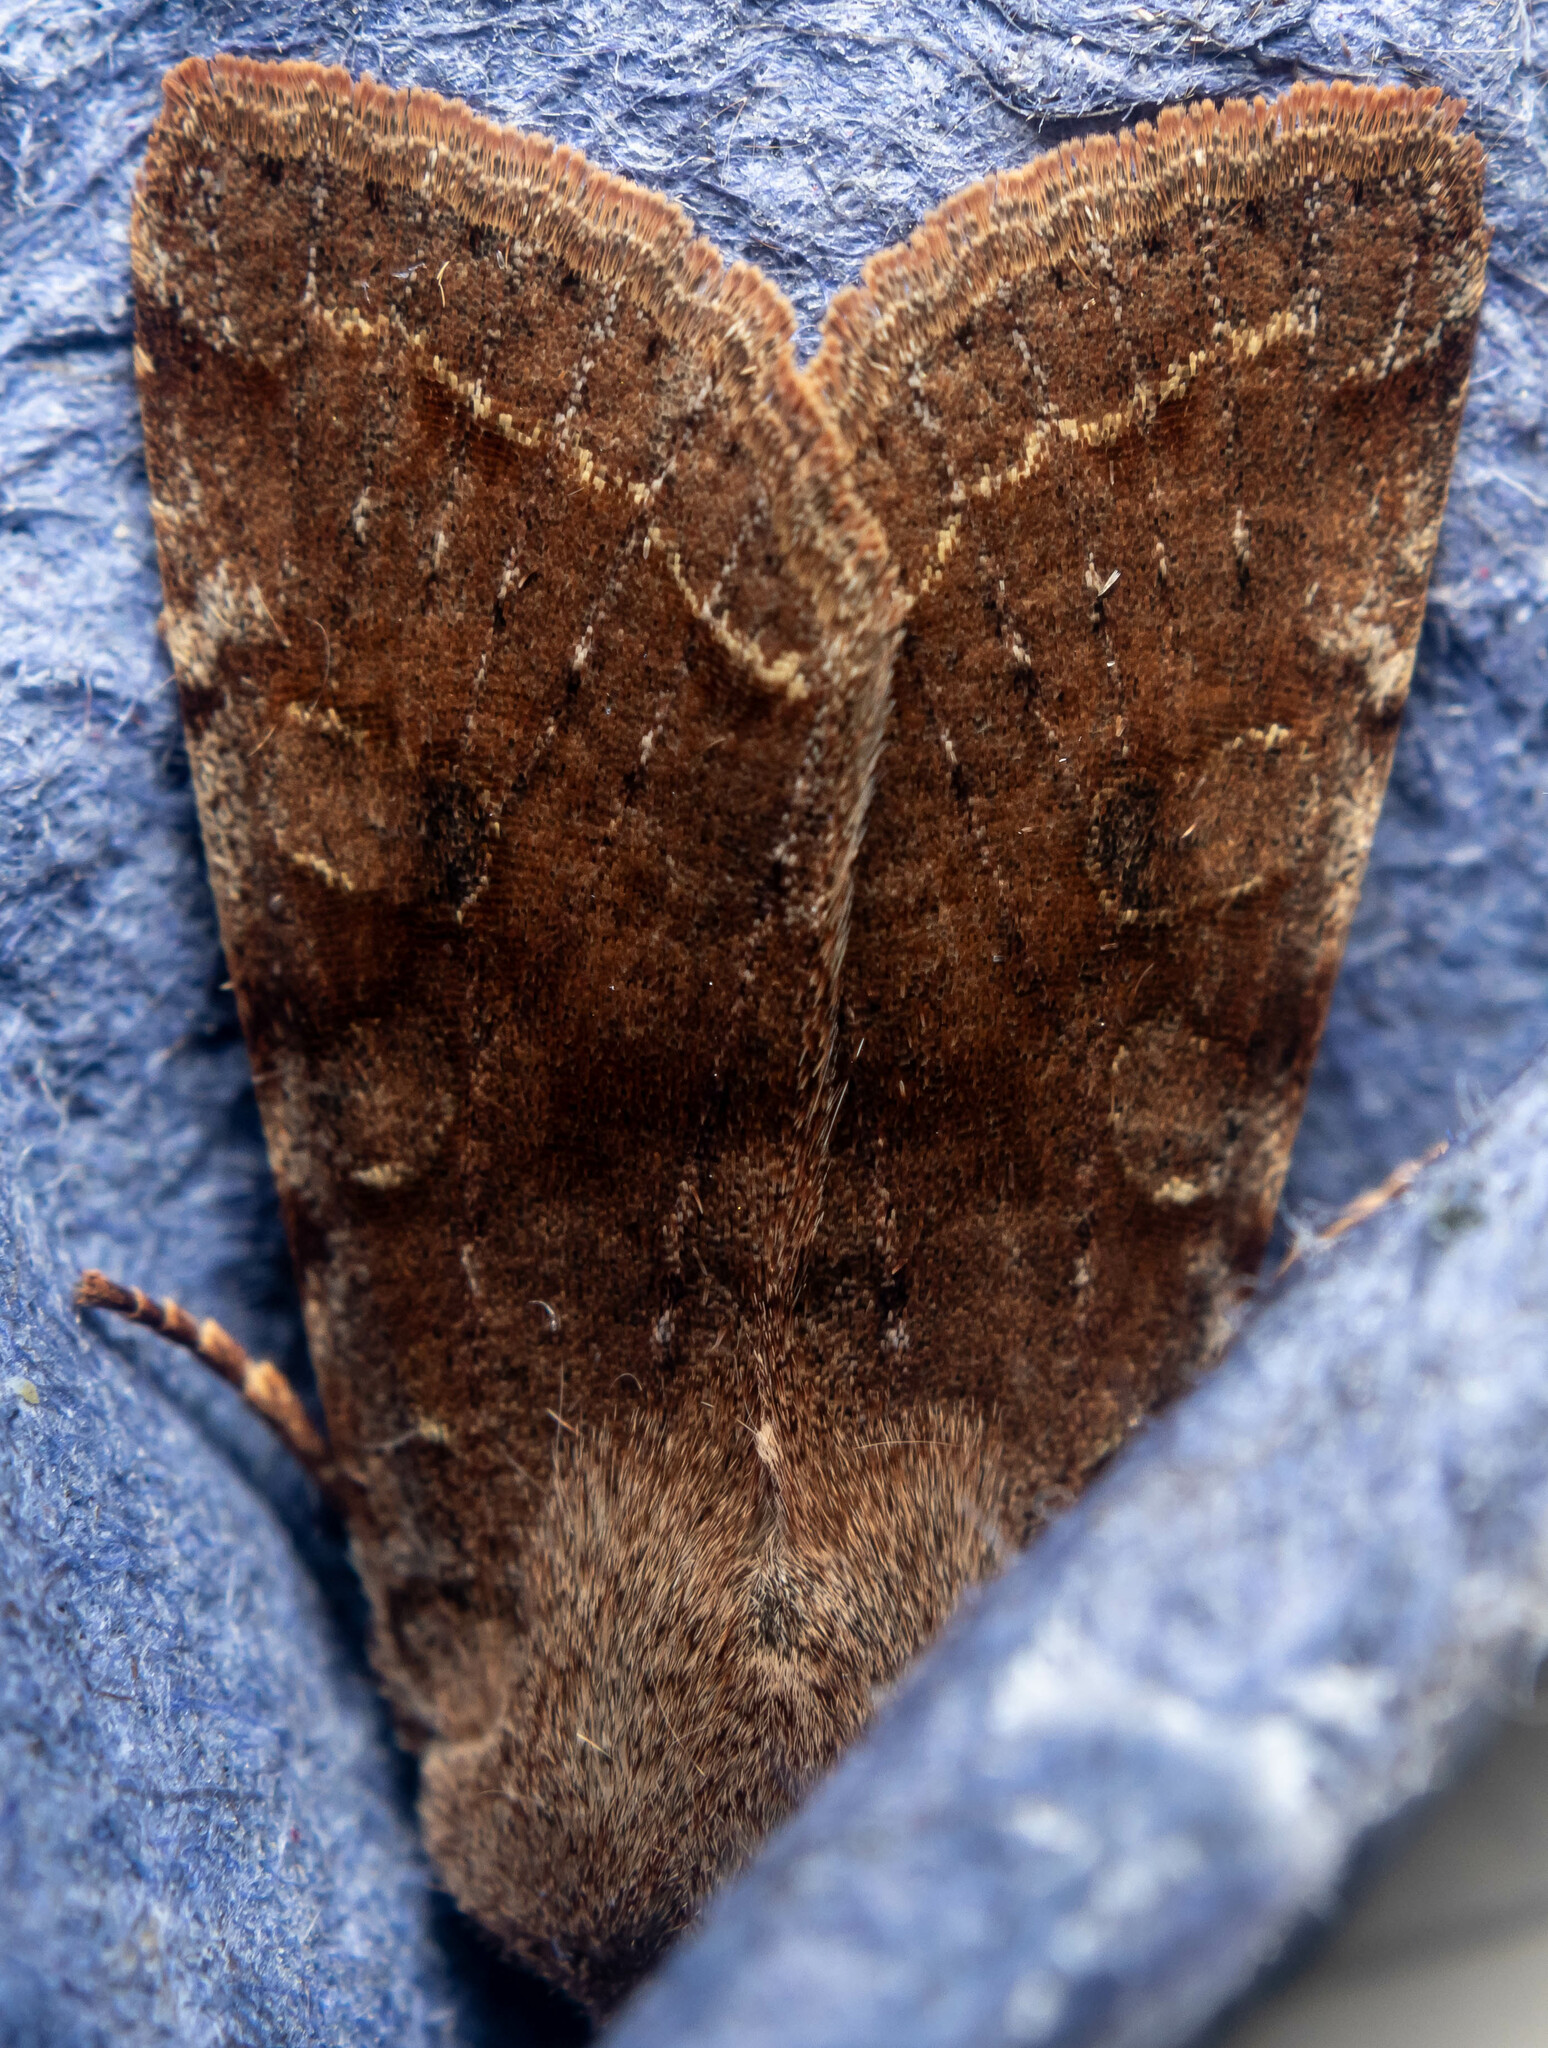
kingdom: Animalia
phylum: Arthropoda
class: Insecta
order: Lepidoptera
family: Noctuidae
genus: Orthosia
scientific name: Orthosia incerta
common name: Clouded drab
